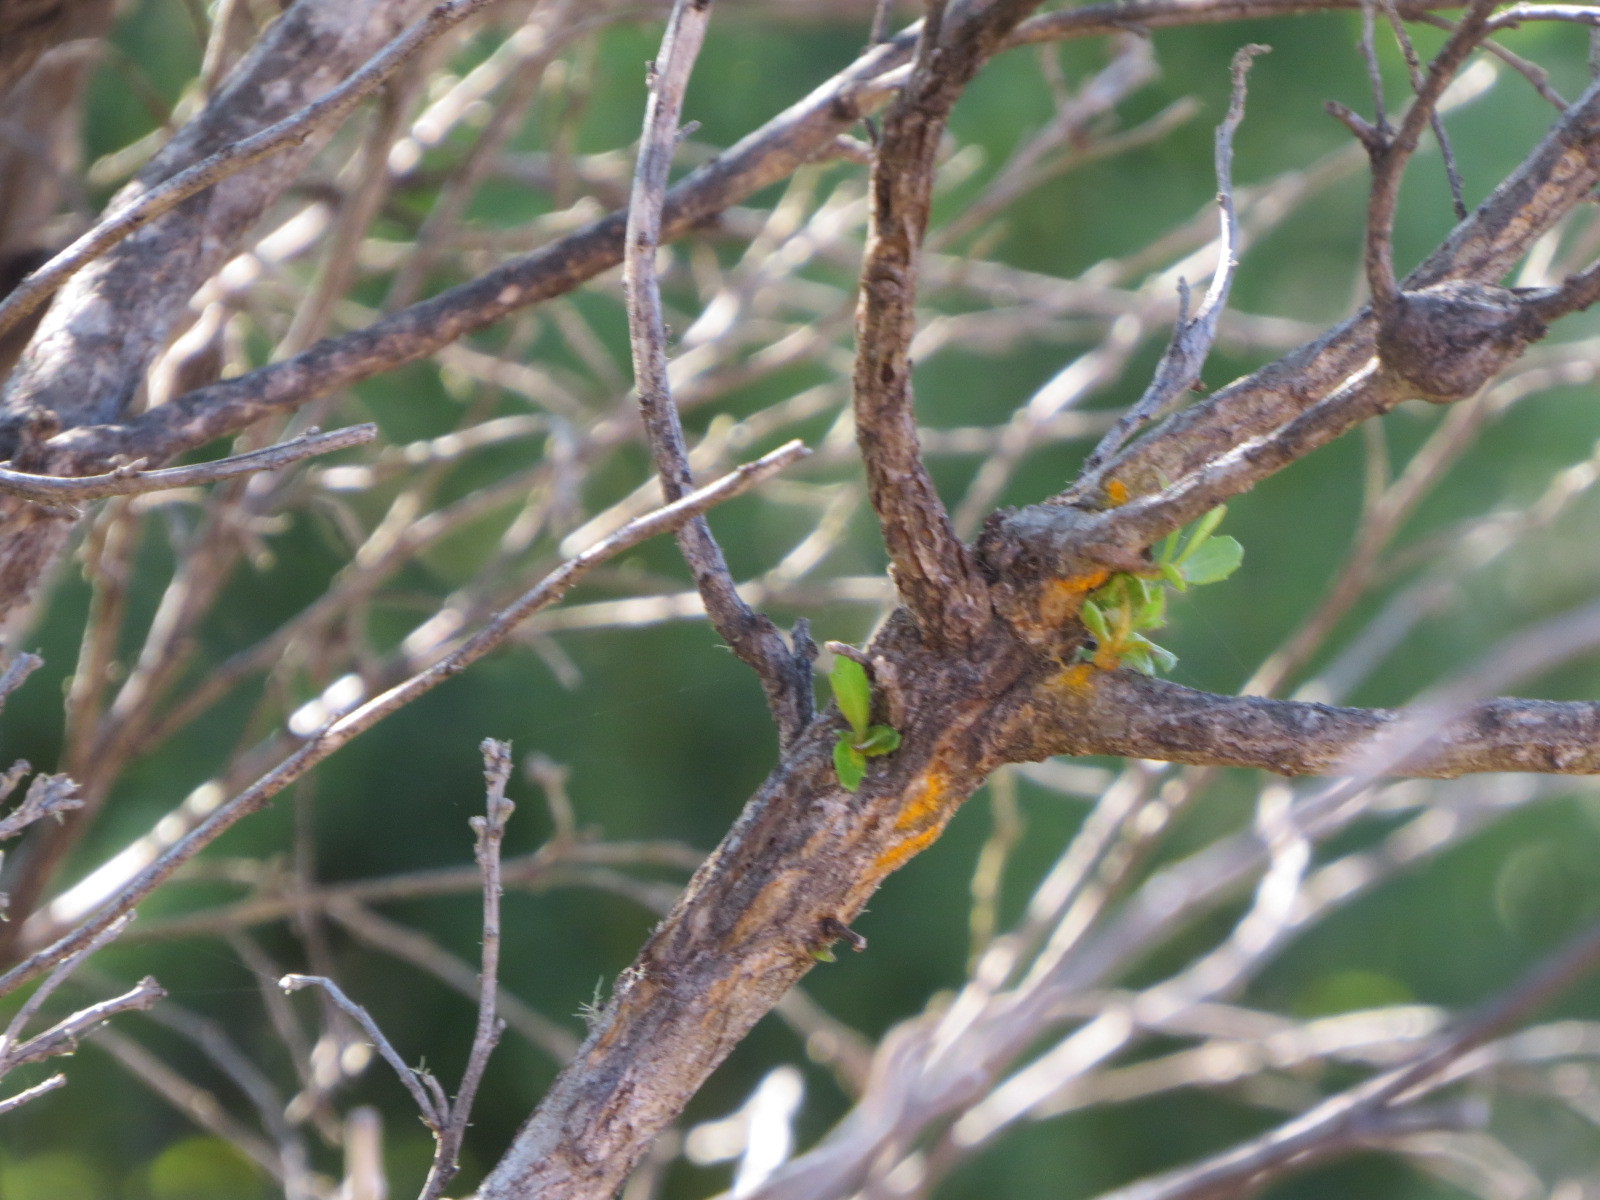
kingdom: Fungi
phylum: Basidiomycota
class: Pucciniomycetes
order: Pucciniales
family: Pucciniaceae
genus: Eriosporangium
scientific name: Eriosporangium evadens
